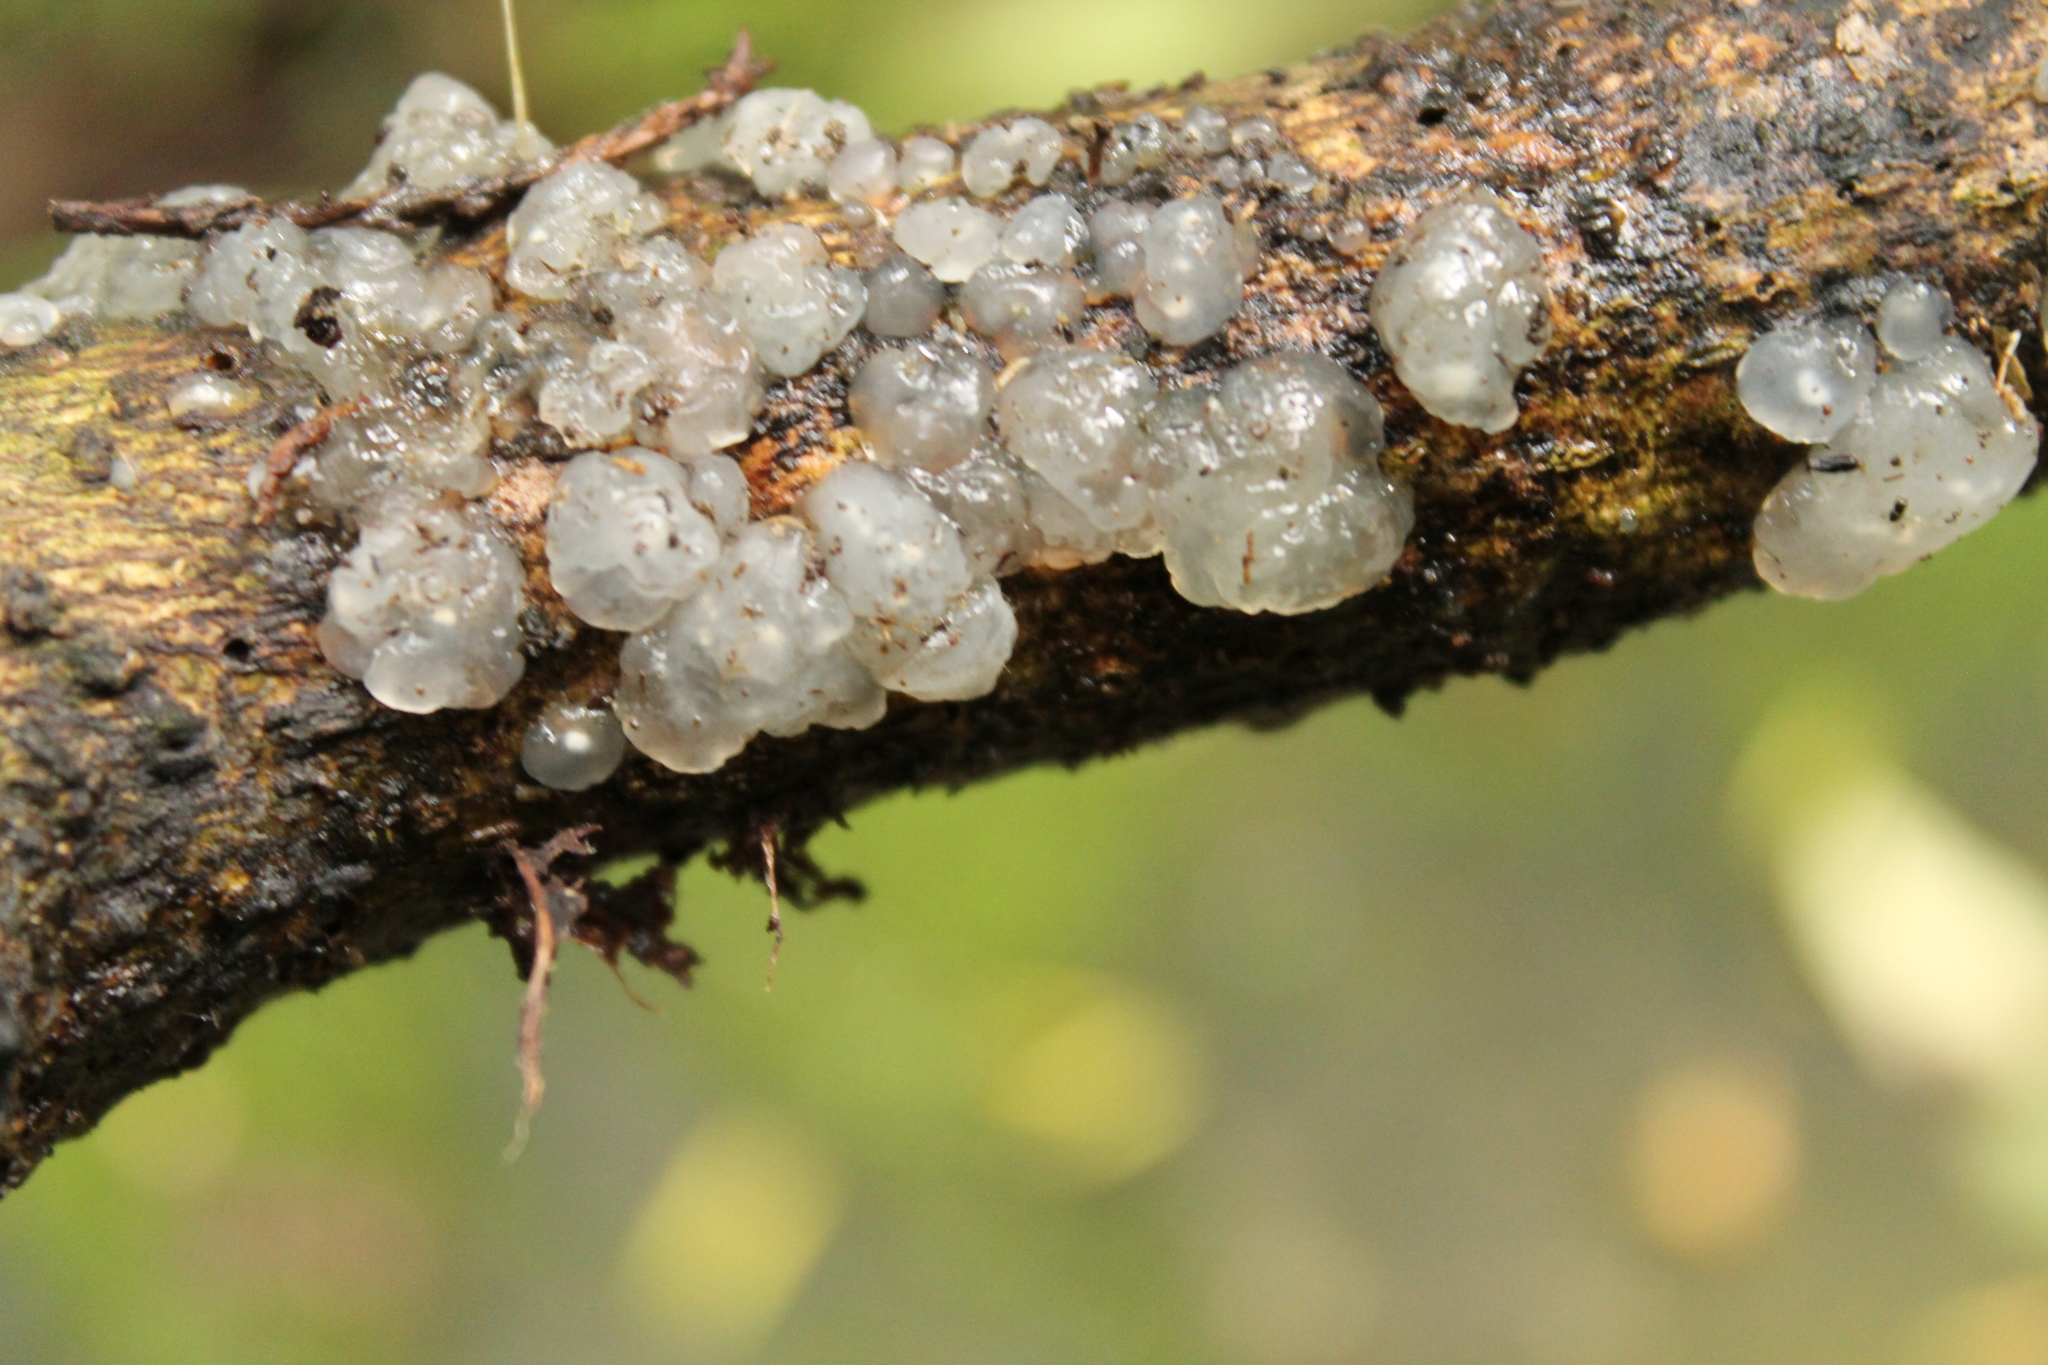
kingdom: Fungi
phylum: Basidiomycota
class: Agaricomycetes
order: Auriculariales
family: Hyaloriaceae
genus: Myxarium
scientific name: Myxarium nucleatum
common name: Crystal brain fungus
